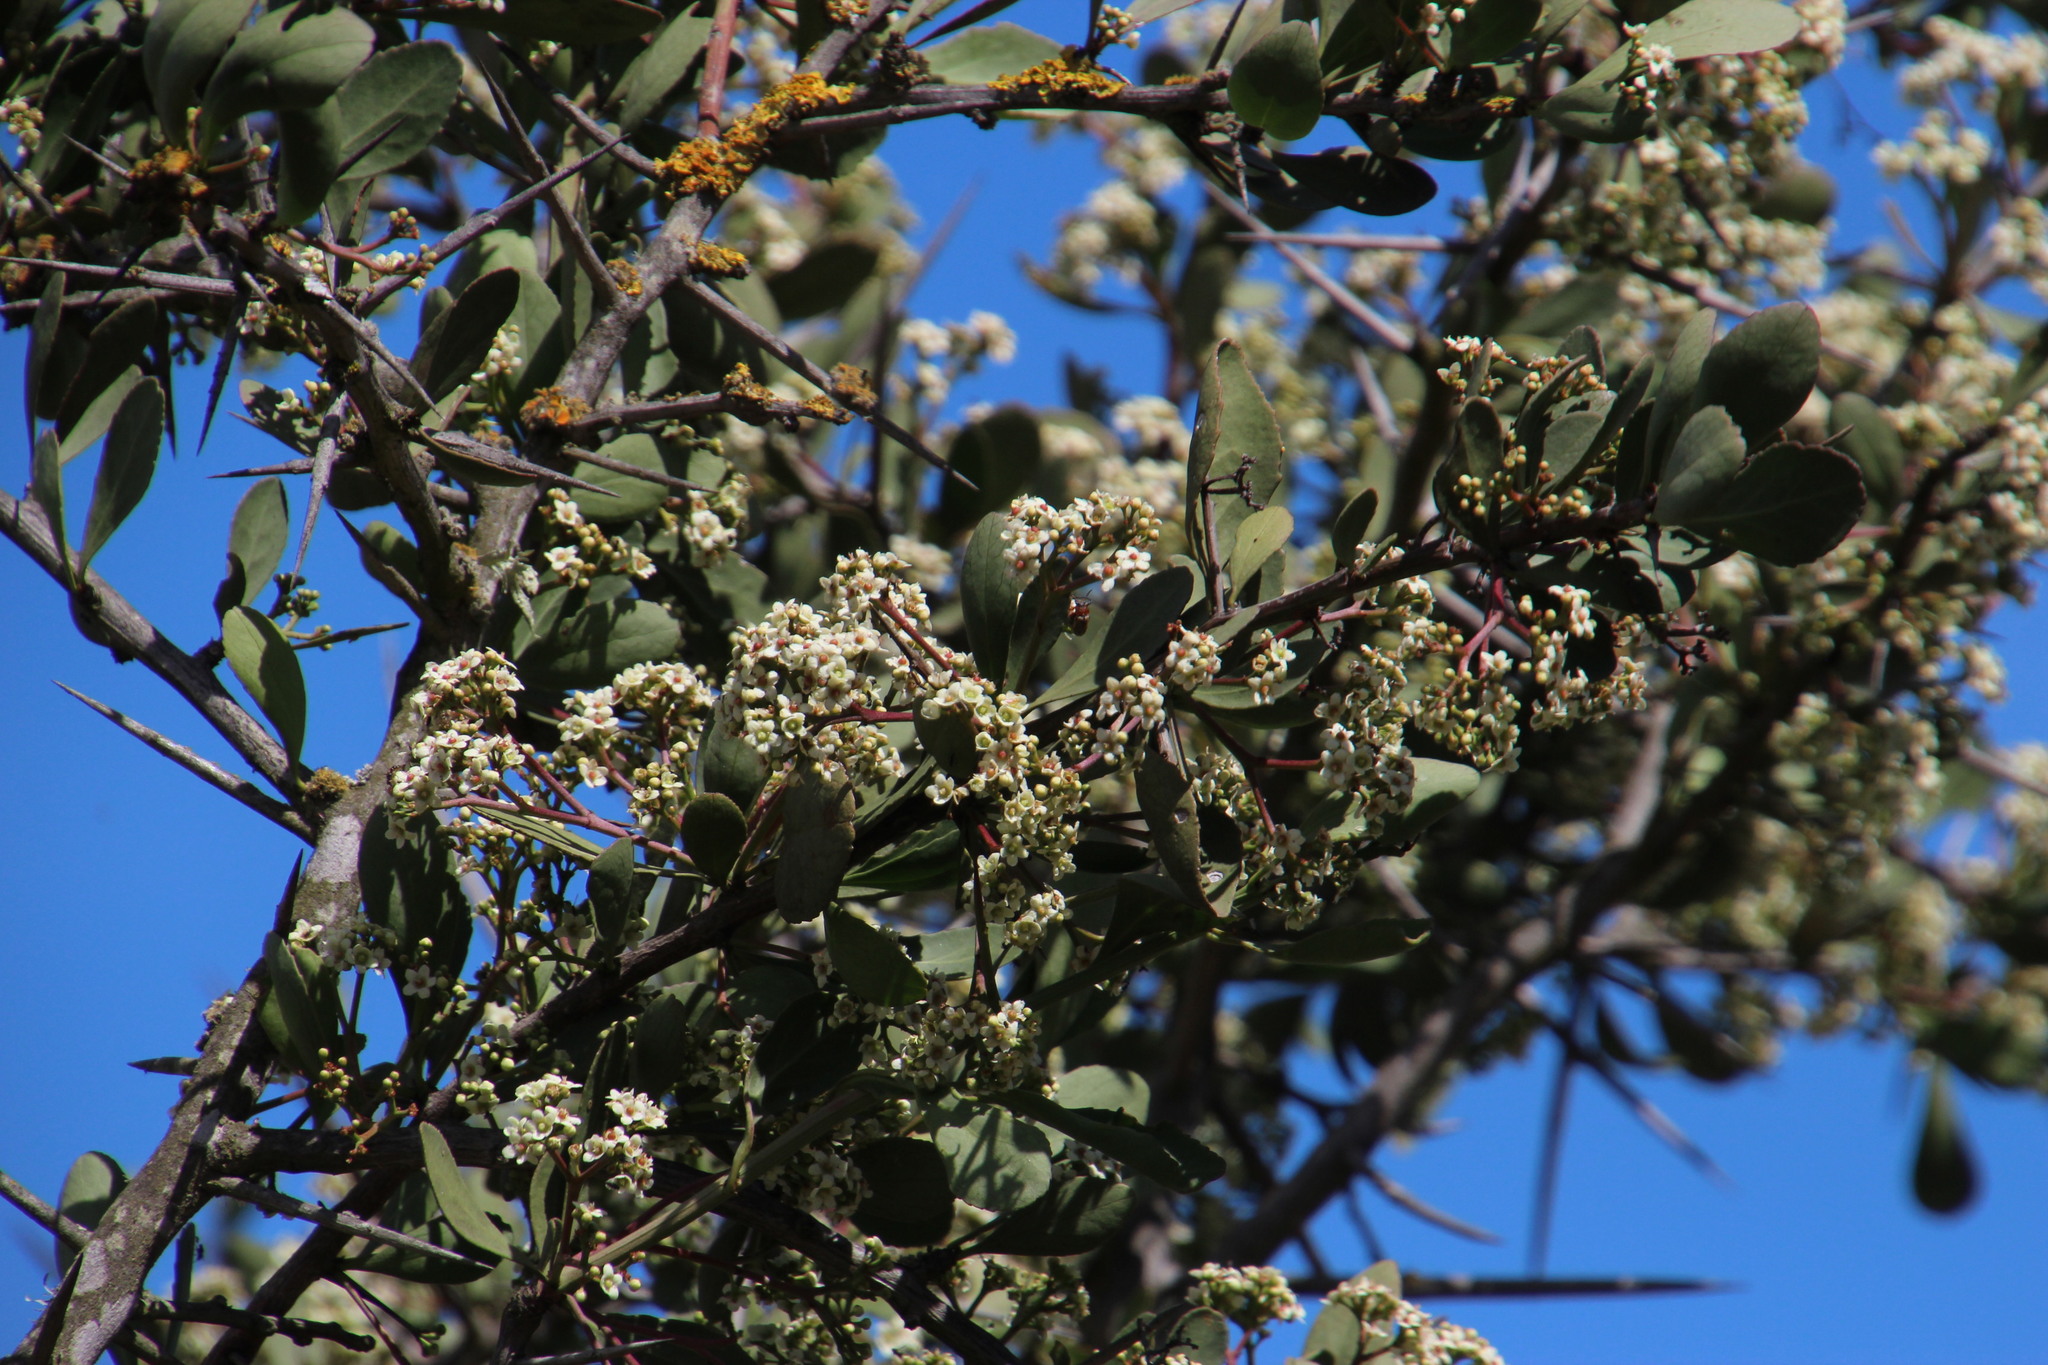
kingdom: Plantae
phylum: Tracheophyta
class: Magnoliopsida
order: Celastrales
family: Celastraceae
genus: Gymnosporia
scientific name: Gymnosporia buxifolia
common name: Common spike-thorn
